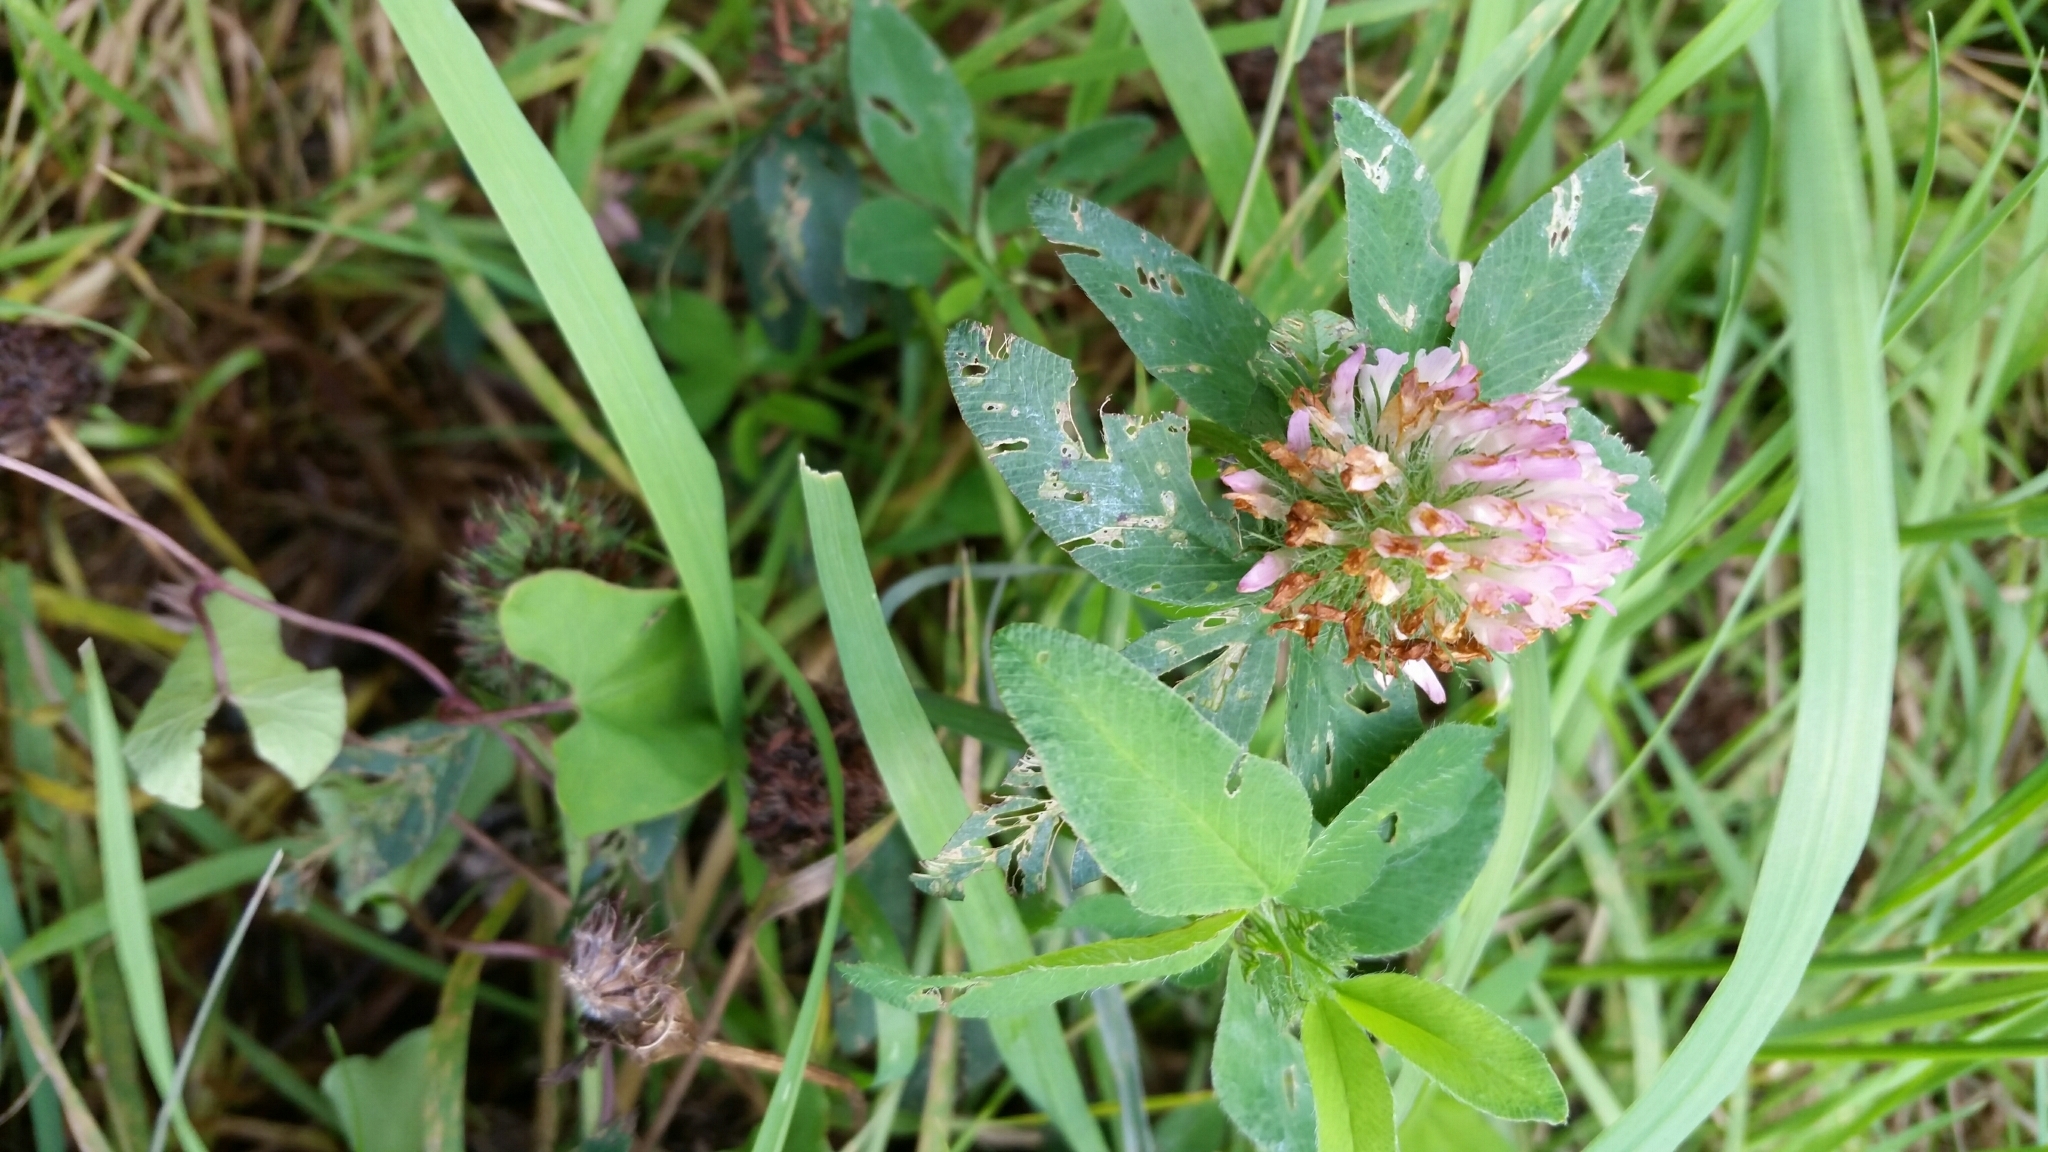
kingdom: Plantae
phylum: Tracheophyta
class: Magnoliopsida
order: Fabales
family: Fabaceae
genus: Trifolium
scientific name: Trifolium pratense
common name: Red clover
